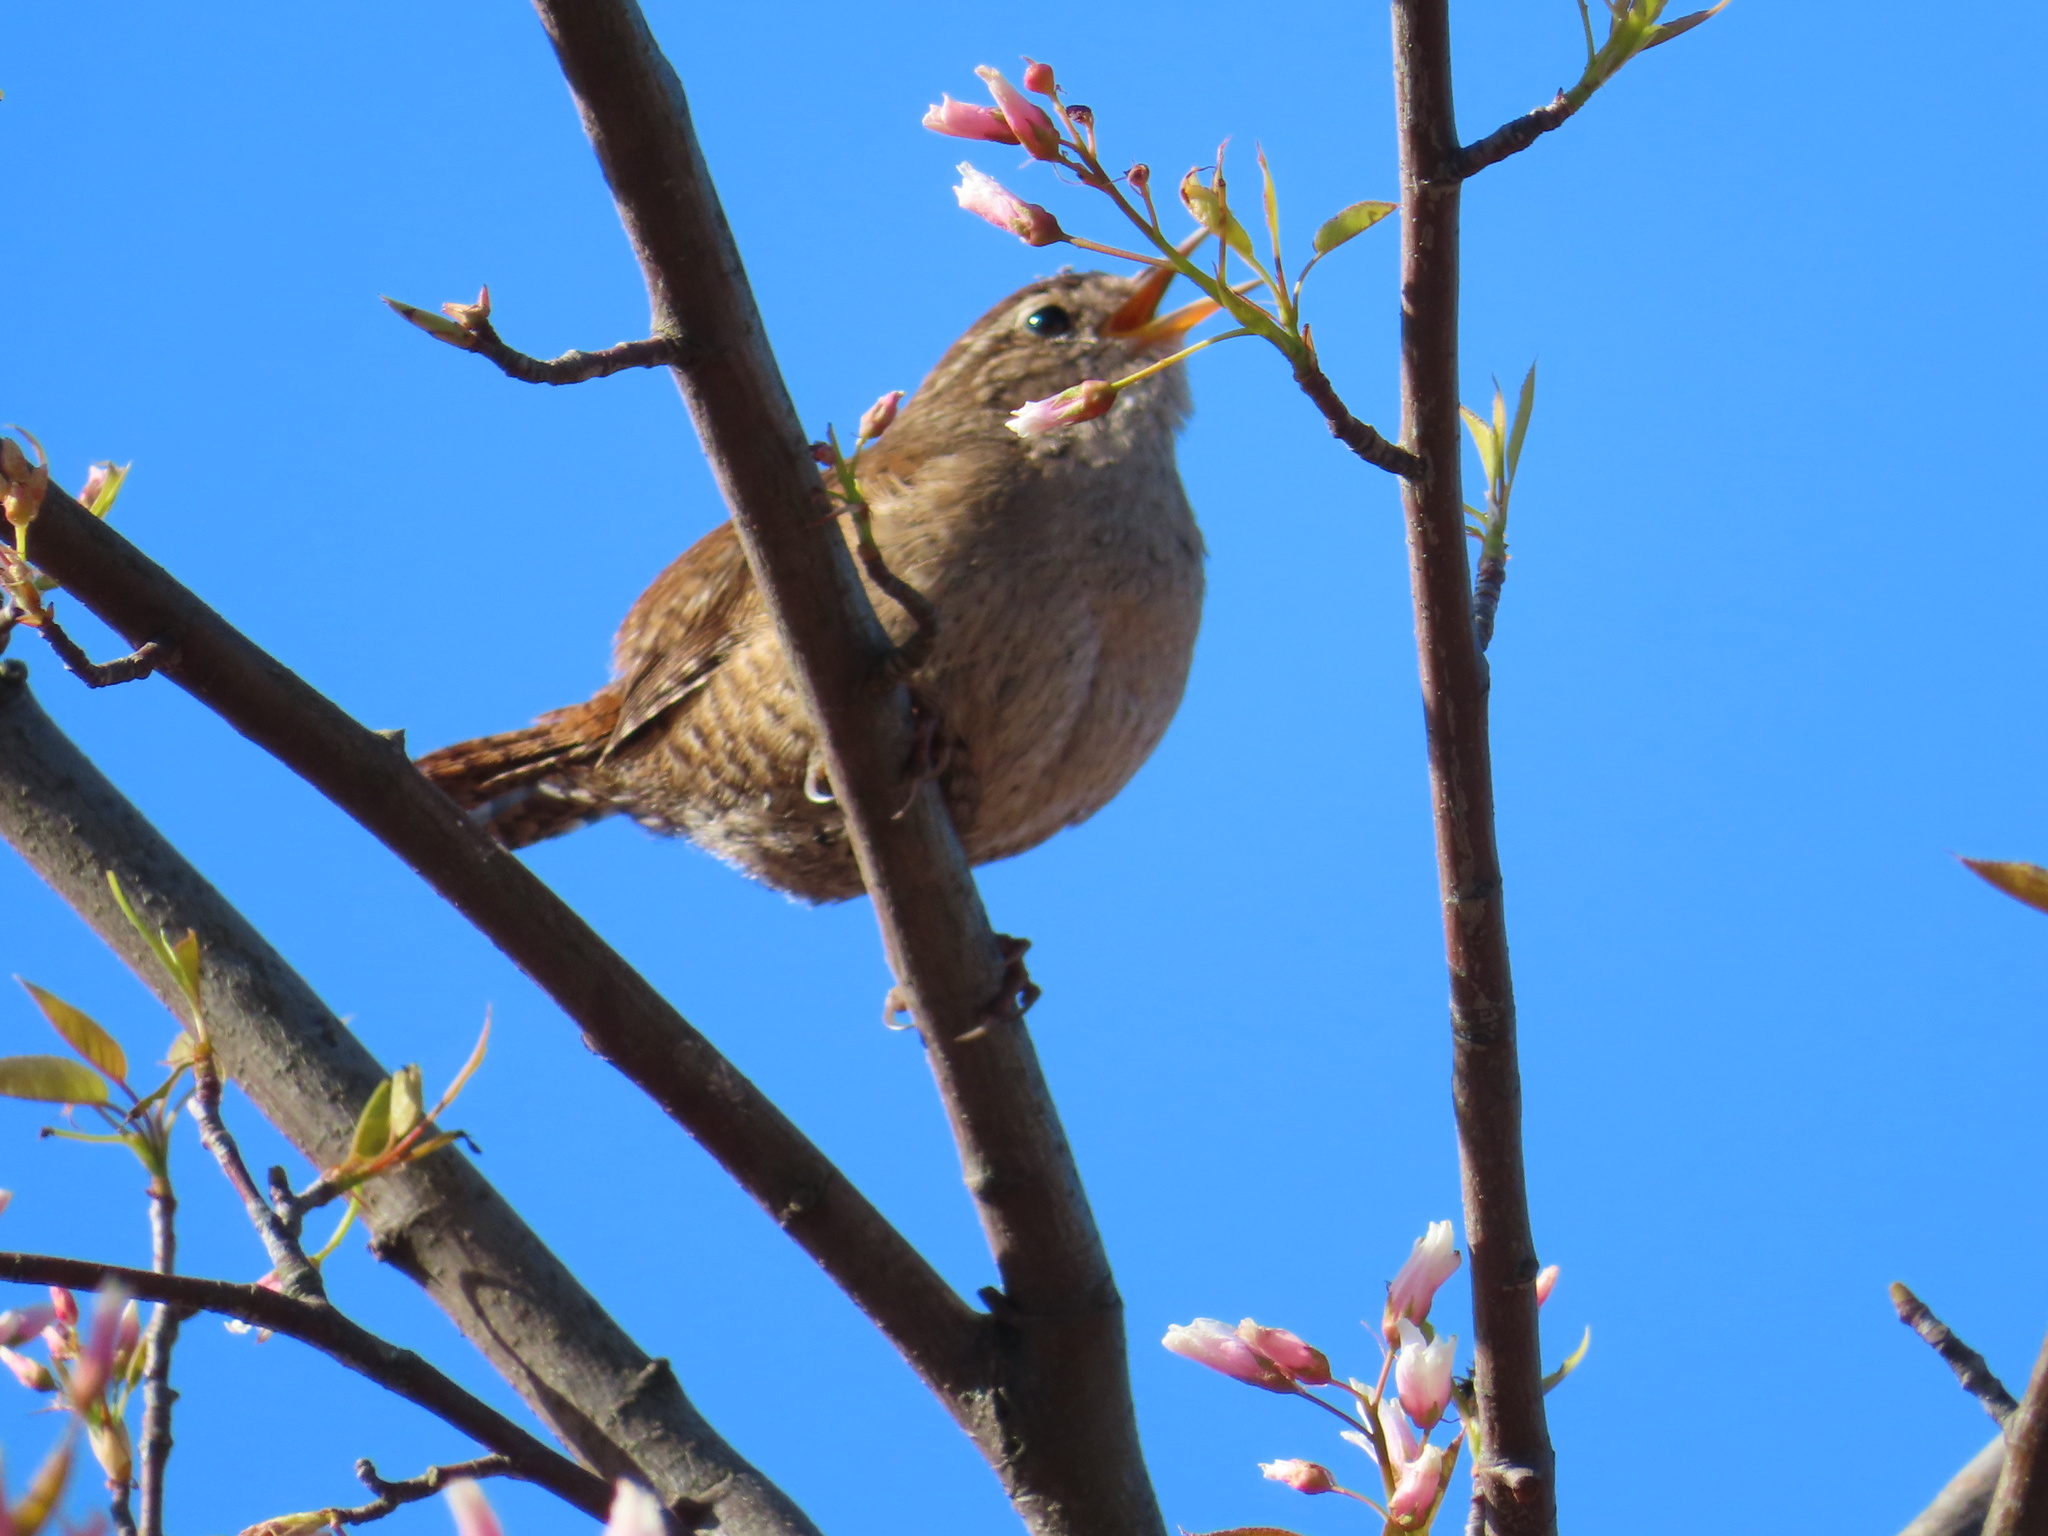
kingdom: Animalia
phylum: Chordata
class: Aves
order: Passeriformes
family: Troglodytidae
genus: Troglodytes
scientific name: Troglodytes troglodytes
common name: Eurasian wren
